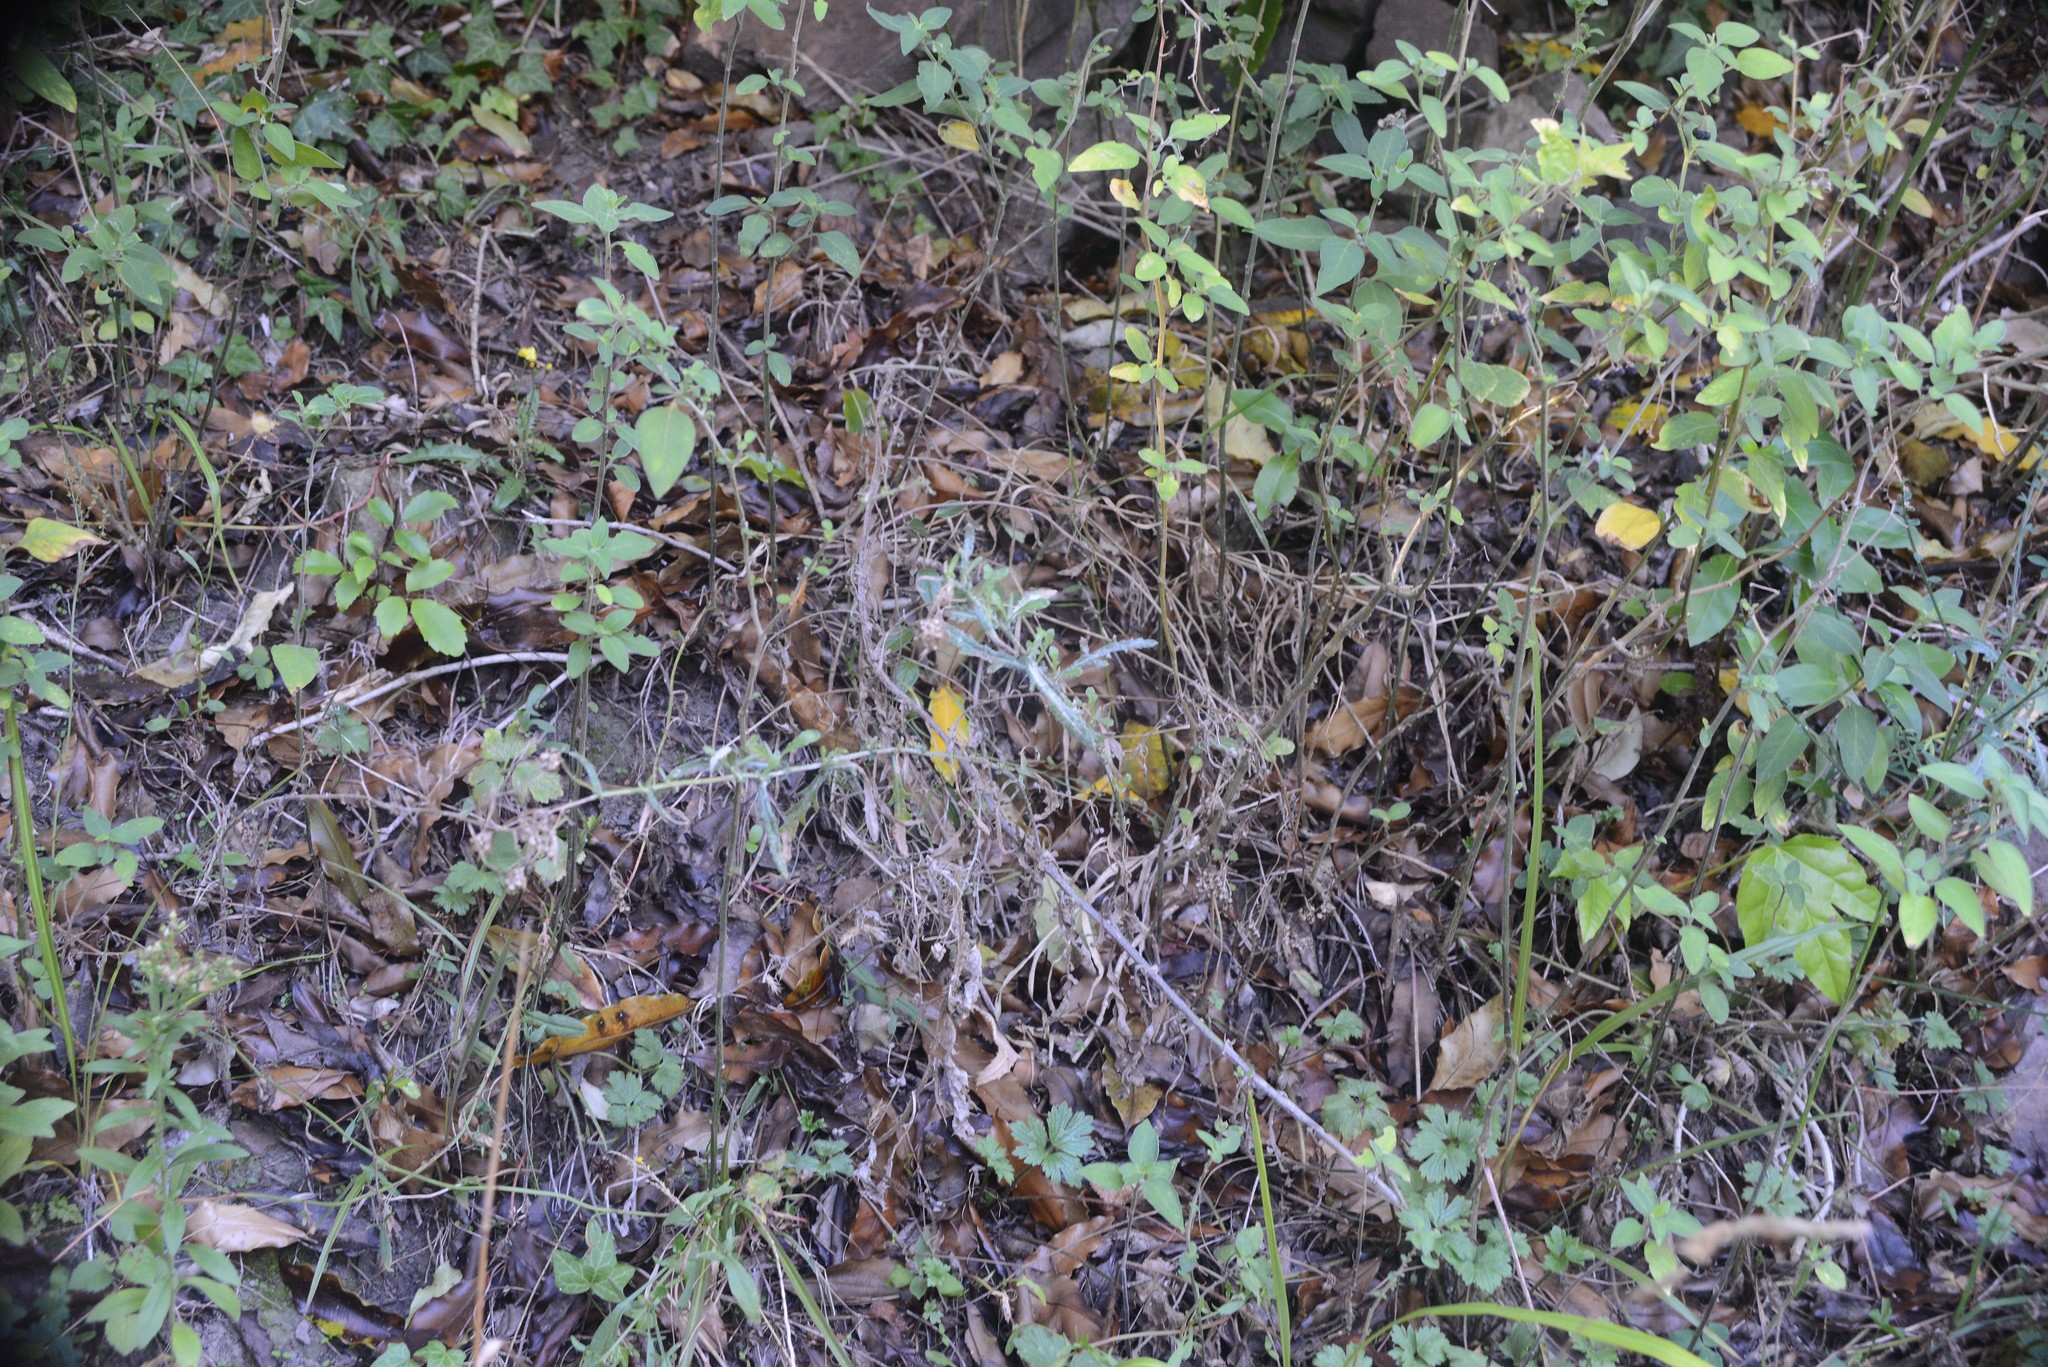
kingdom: Plantae
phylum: Tracheophyta
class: Magnoliopsida
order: Asterales
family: Asteraceae
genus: Senecio
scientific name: Senecio glomeratus
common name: Cutleaf burnweed
